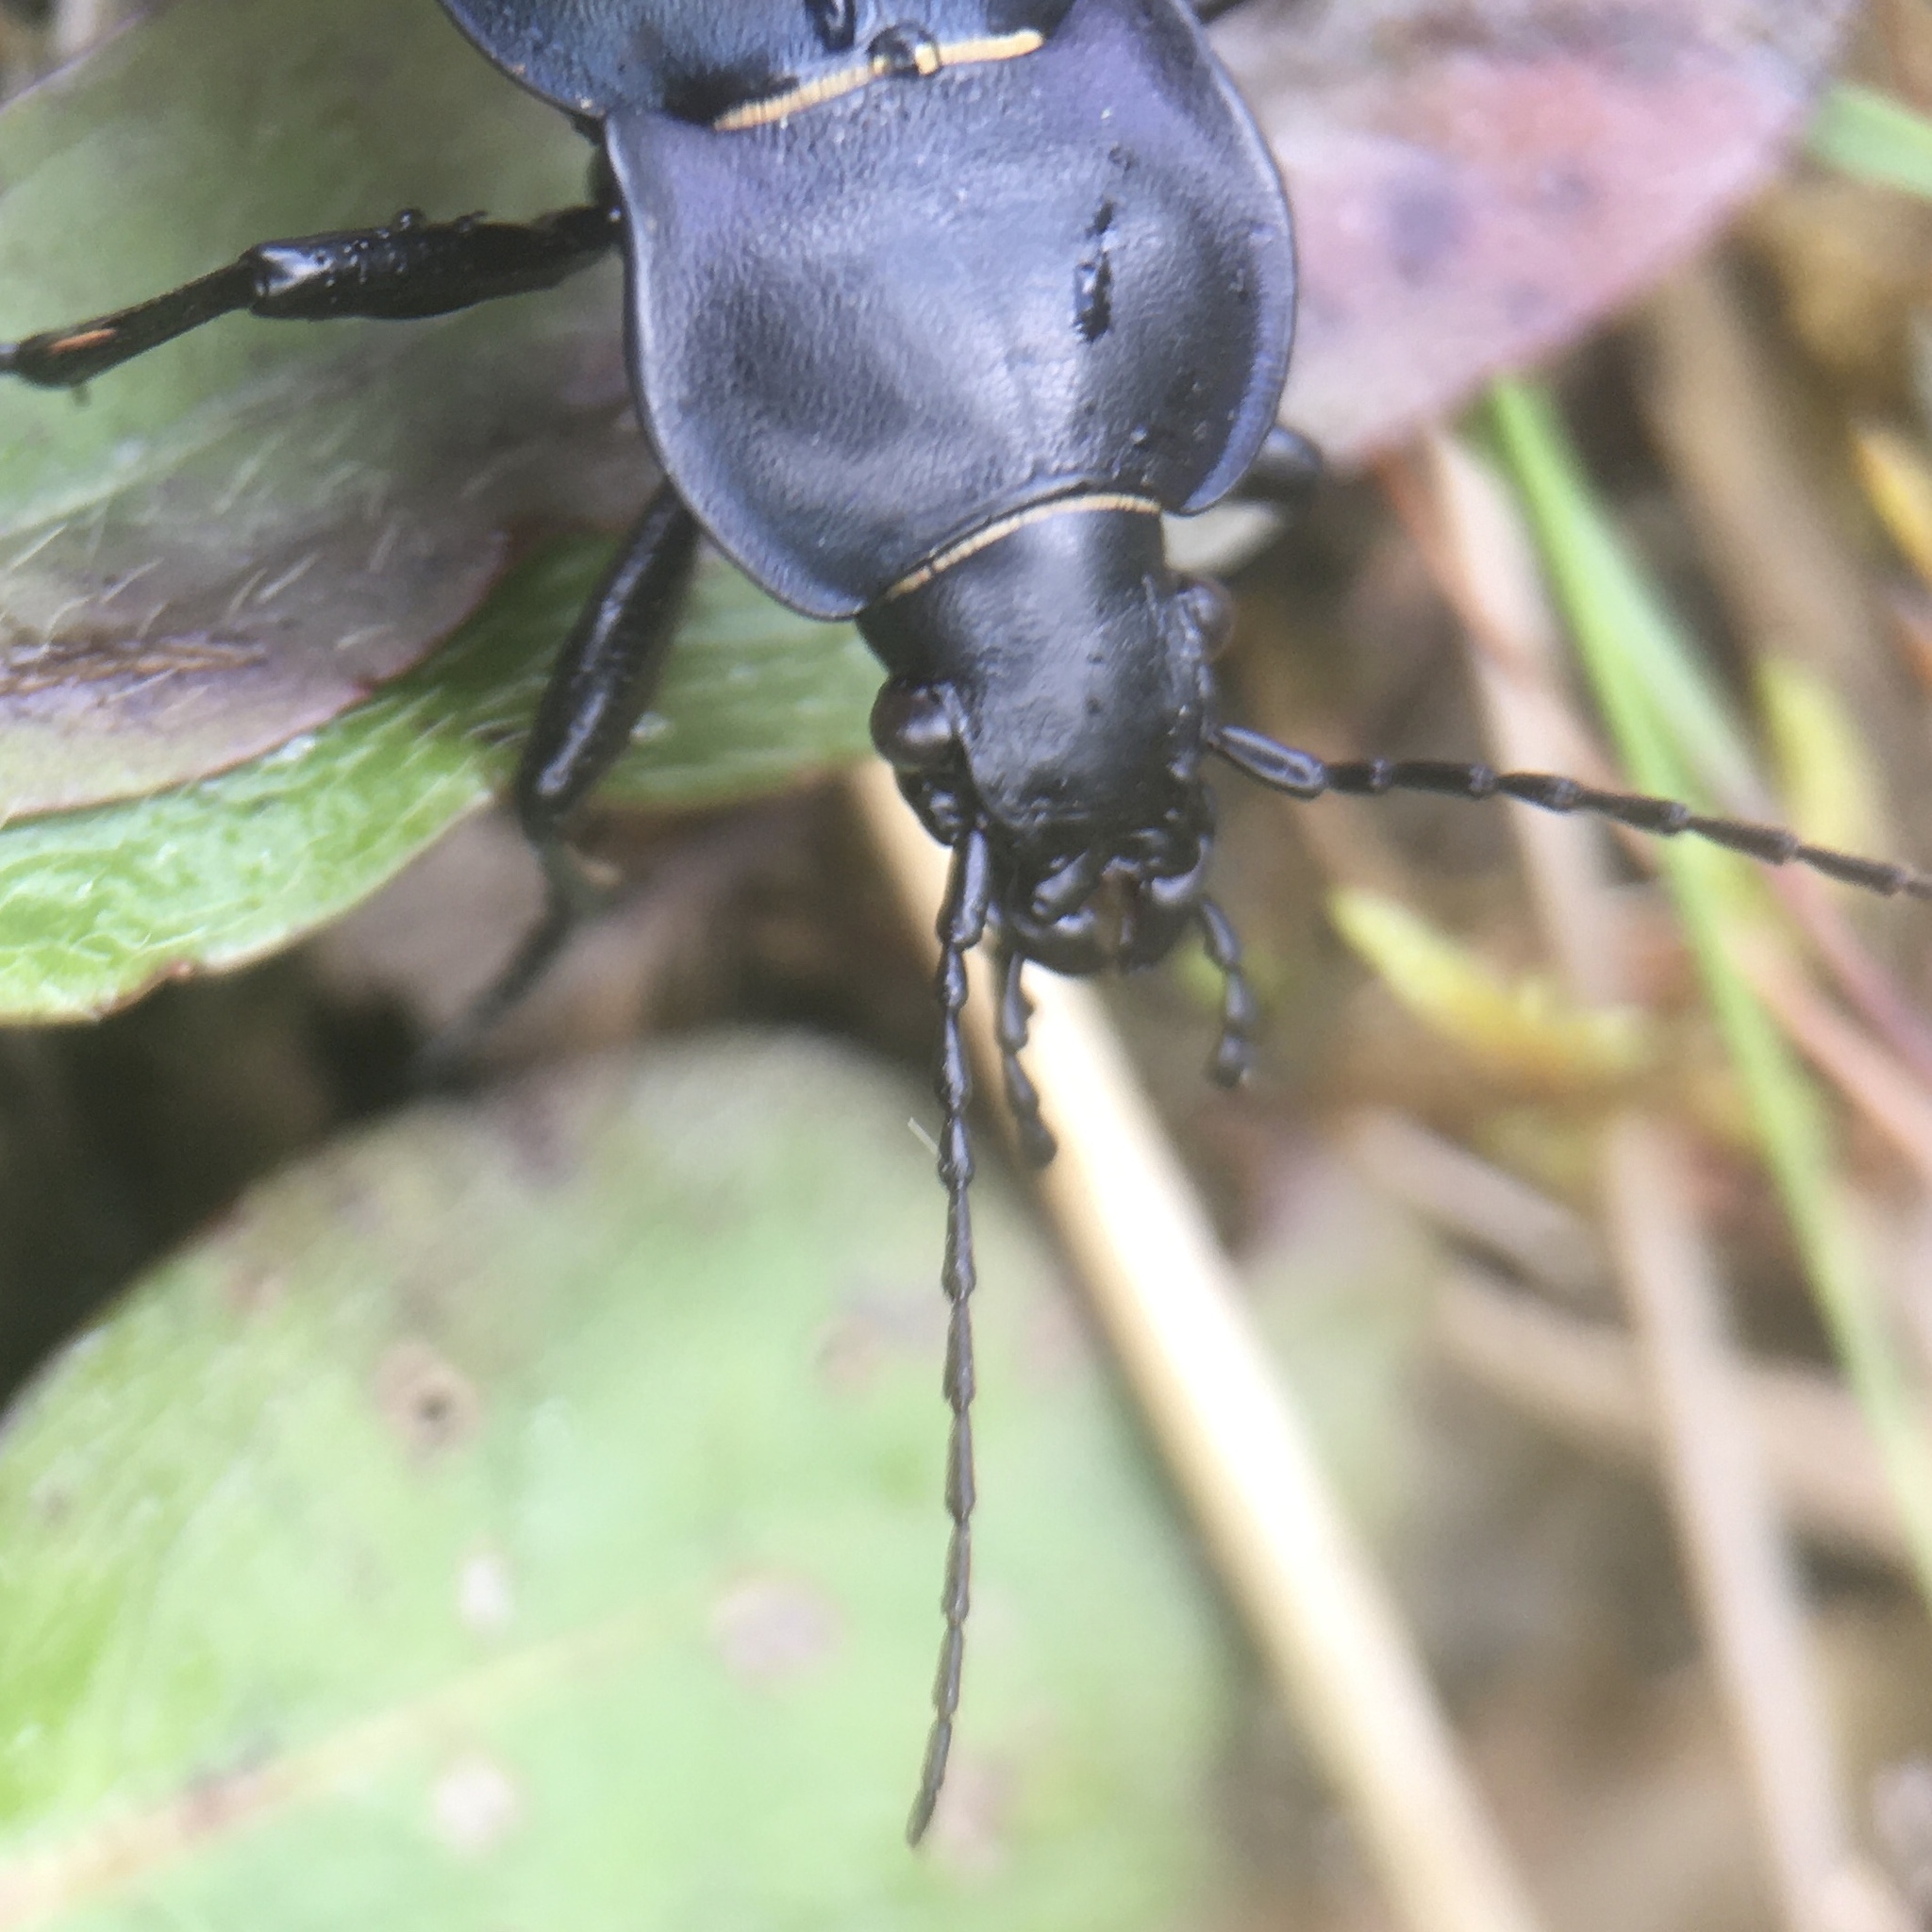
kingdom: Animalia
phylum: Arthropoda
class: Insecta
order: Coleoptera
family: Carabidae
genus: Carabus
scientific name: Carabus glabratus
